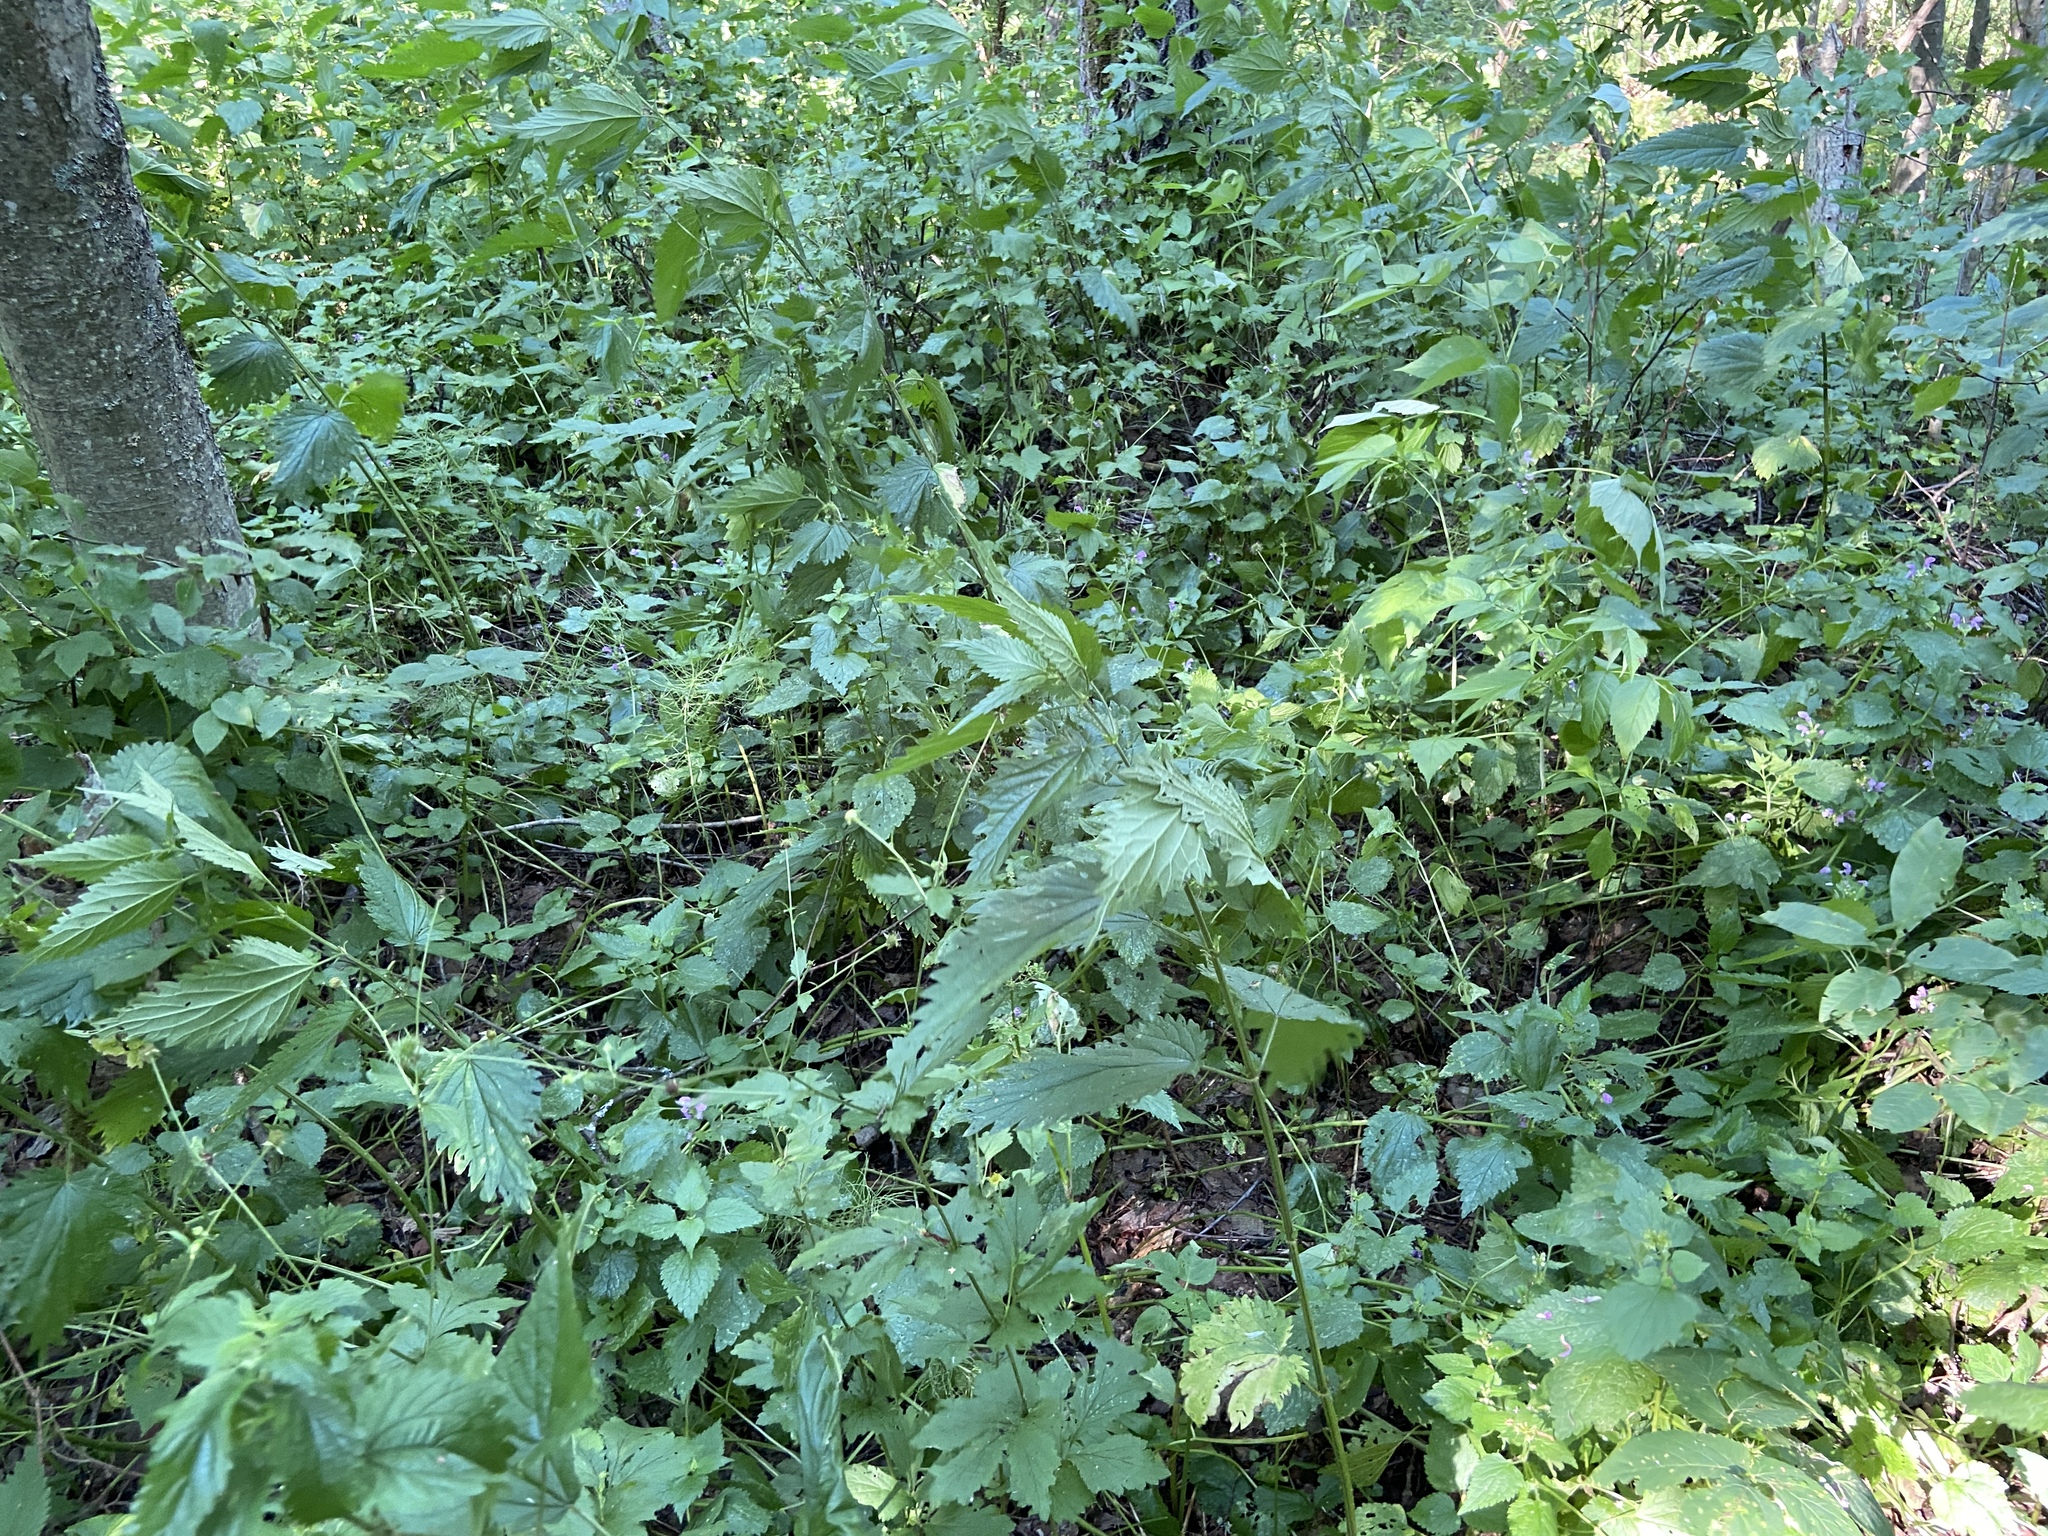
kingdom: Plantae
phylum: Tracheophyta
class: Magnoliopsida
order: Rosales
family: Urticaceae
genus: Urtica
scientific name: Urtica dioica
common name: Common nettle
